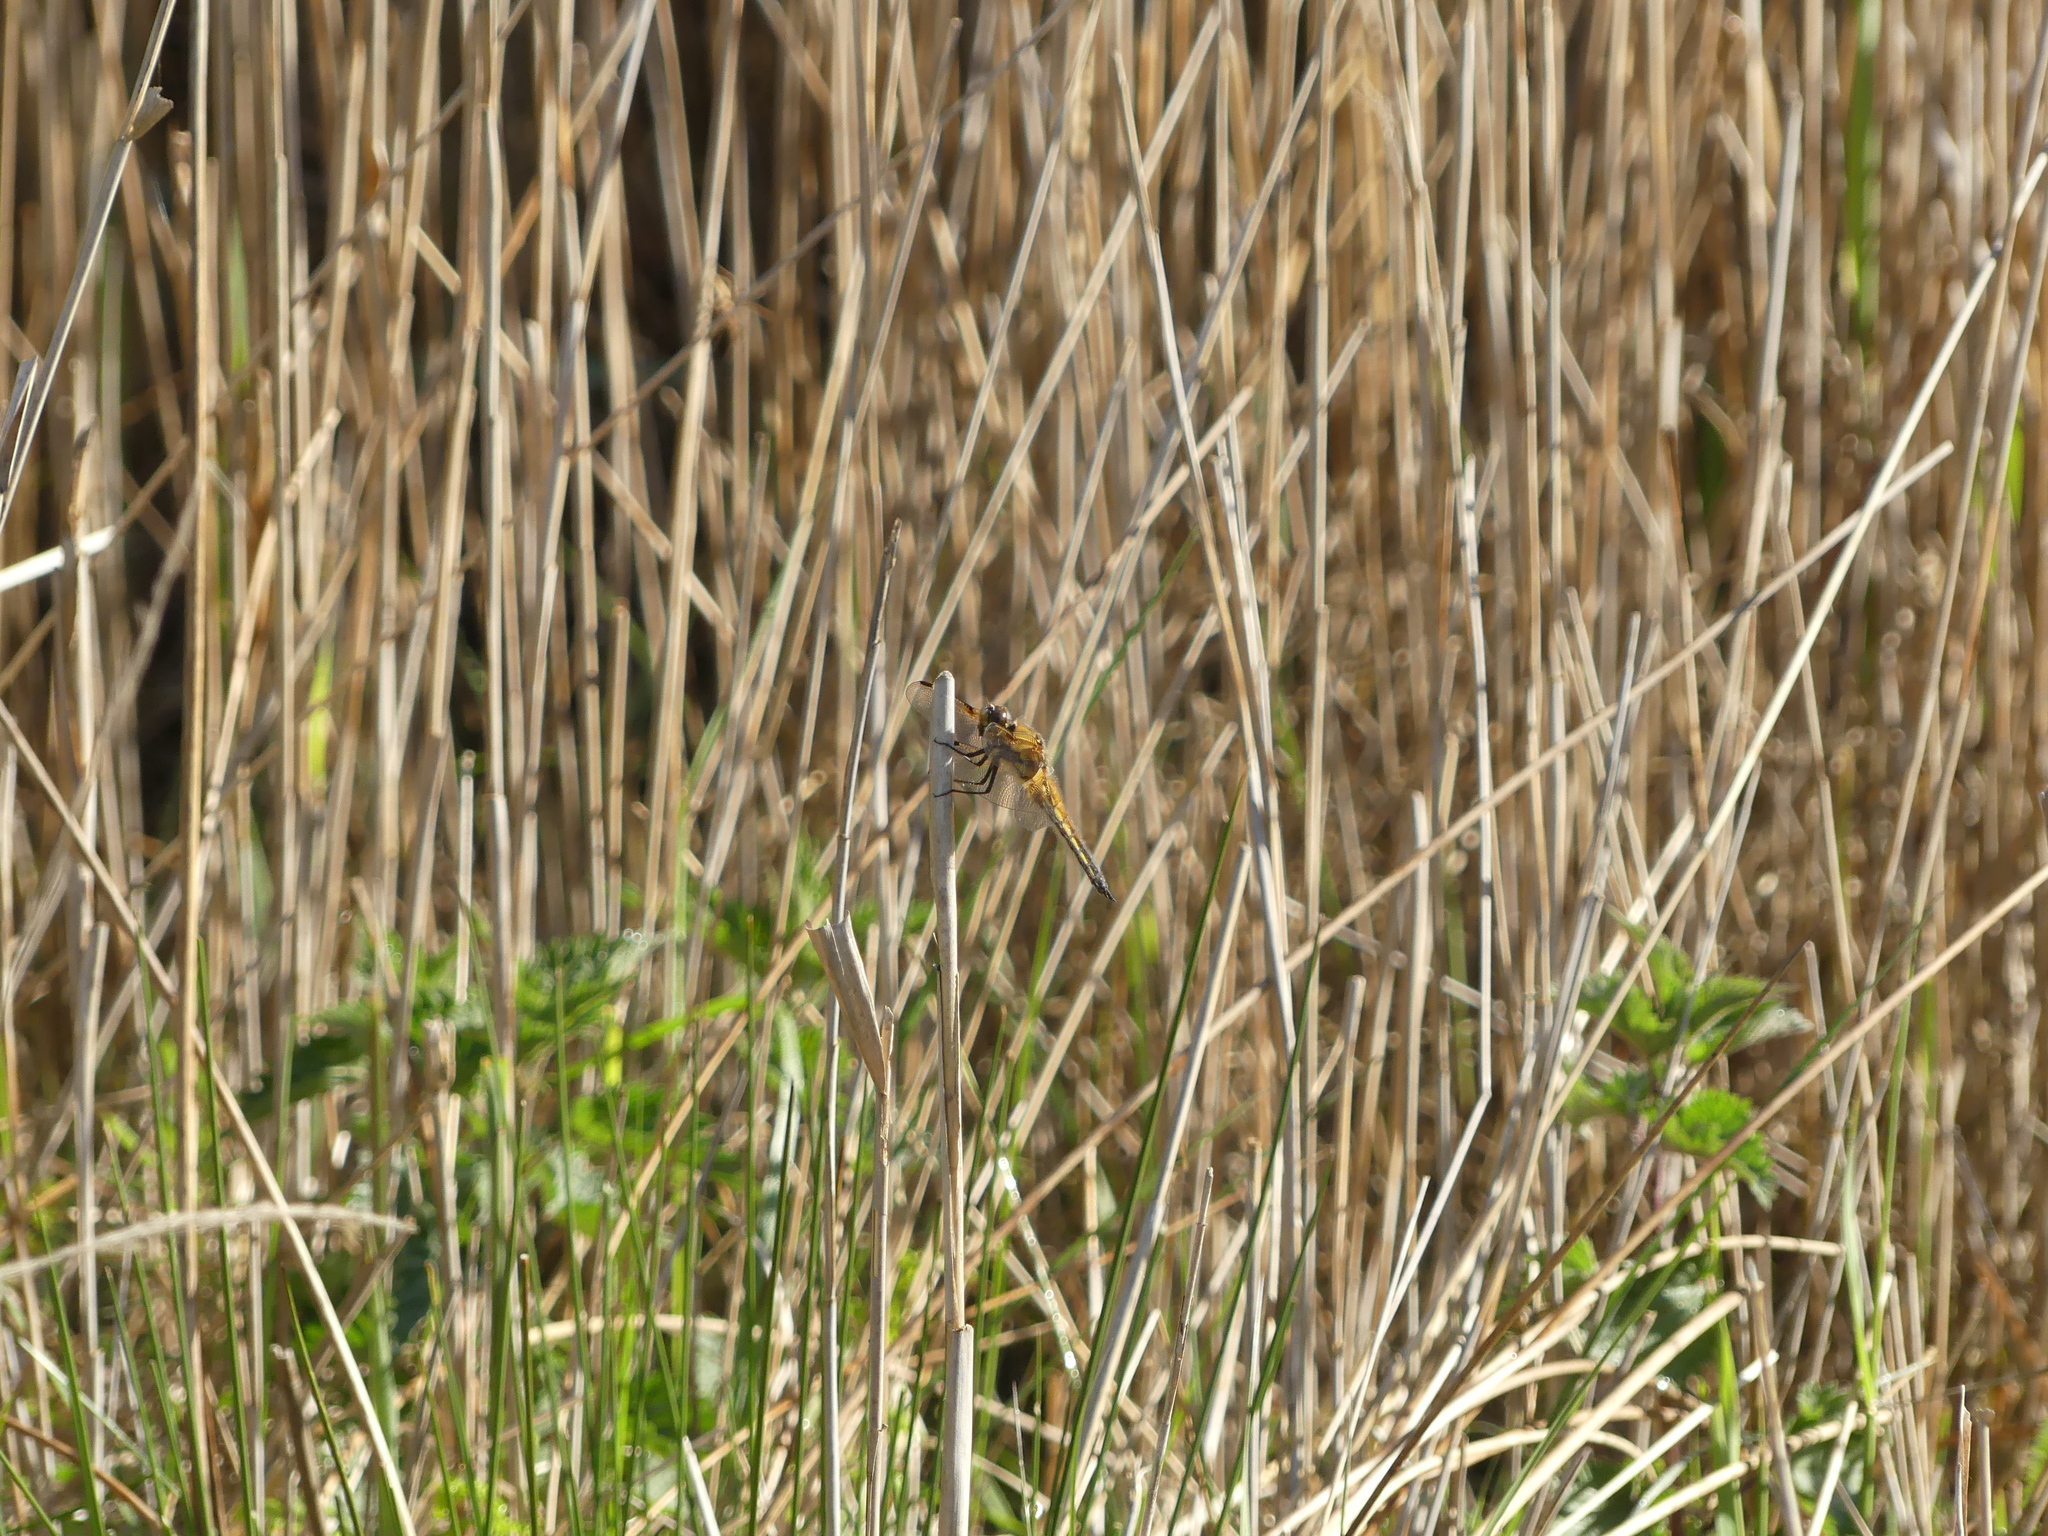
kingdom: Animalia
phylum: Arthropoda
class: Insecta
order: Odonata
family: Libellulidae
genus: Libellula
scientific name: Libellula quadrimaculata
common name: Four-spotted chaser
